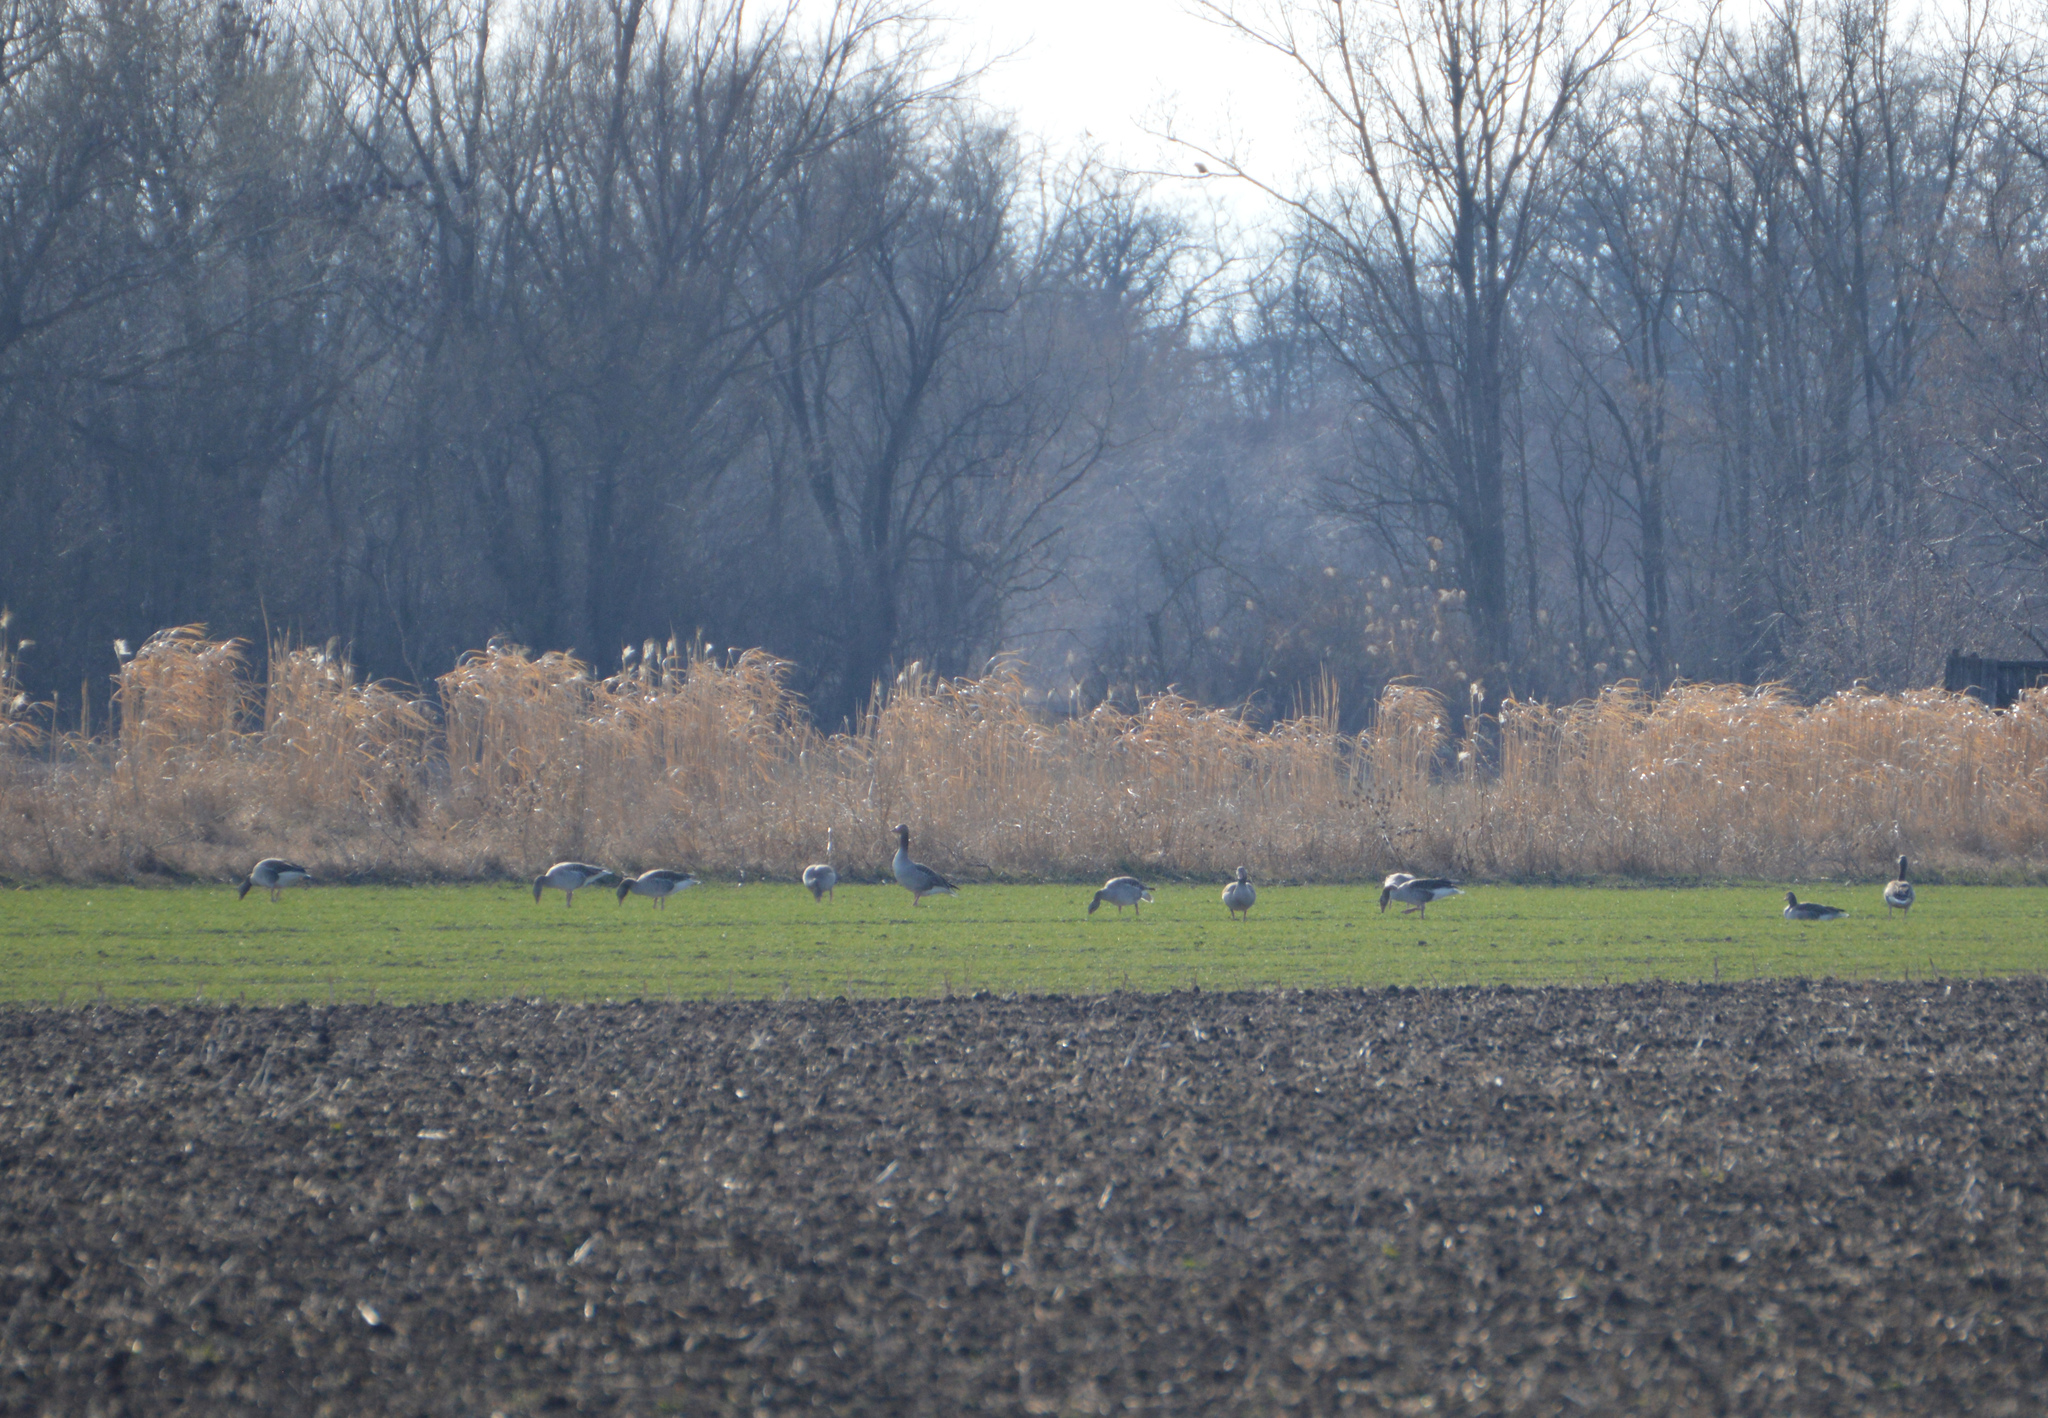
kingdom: Animalia
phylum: Chordata
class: Aves
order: Anseriformes
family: Anatidae
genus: Anser
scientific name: Anser anser
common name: Greylag goose
